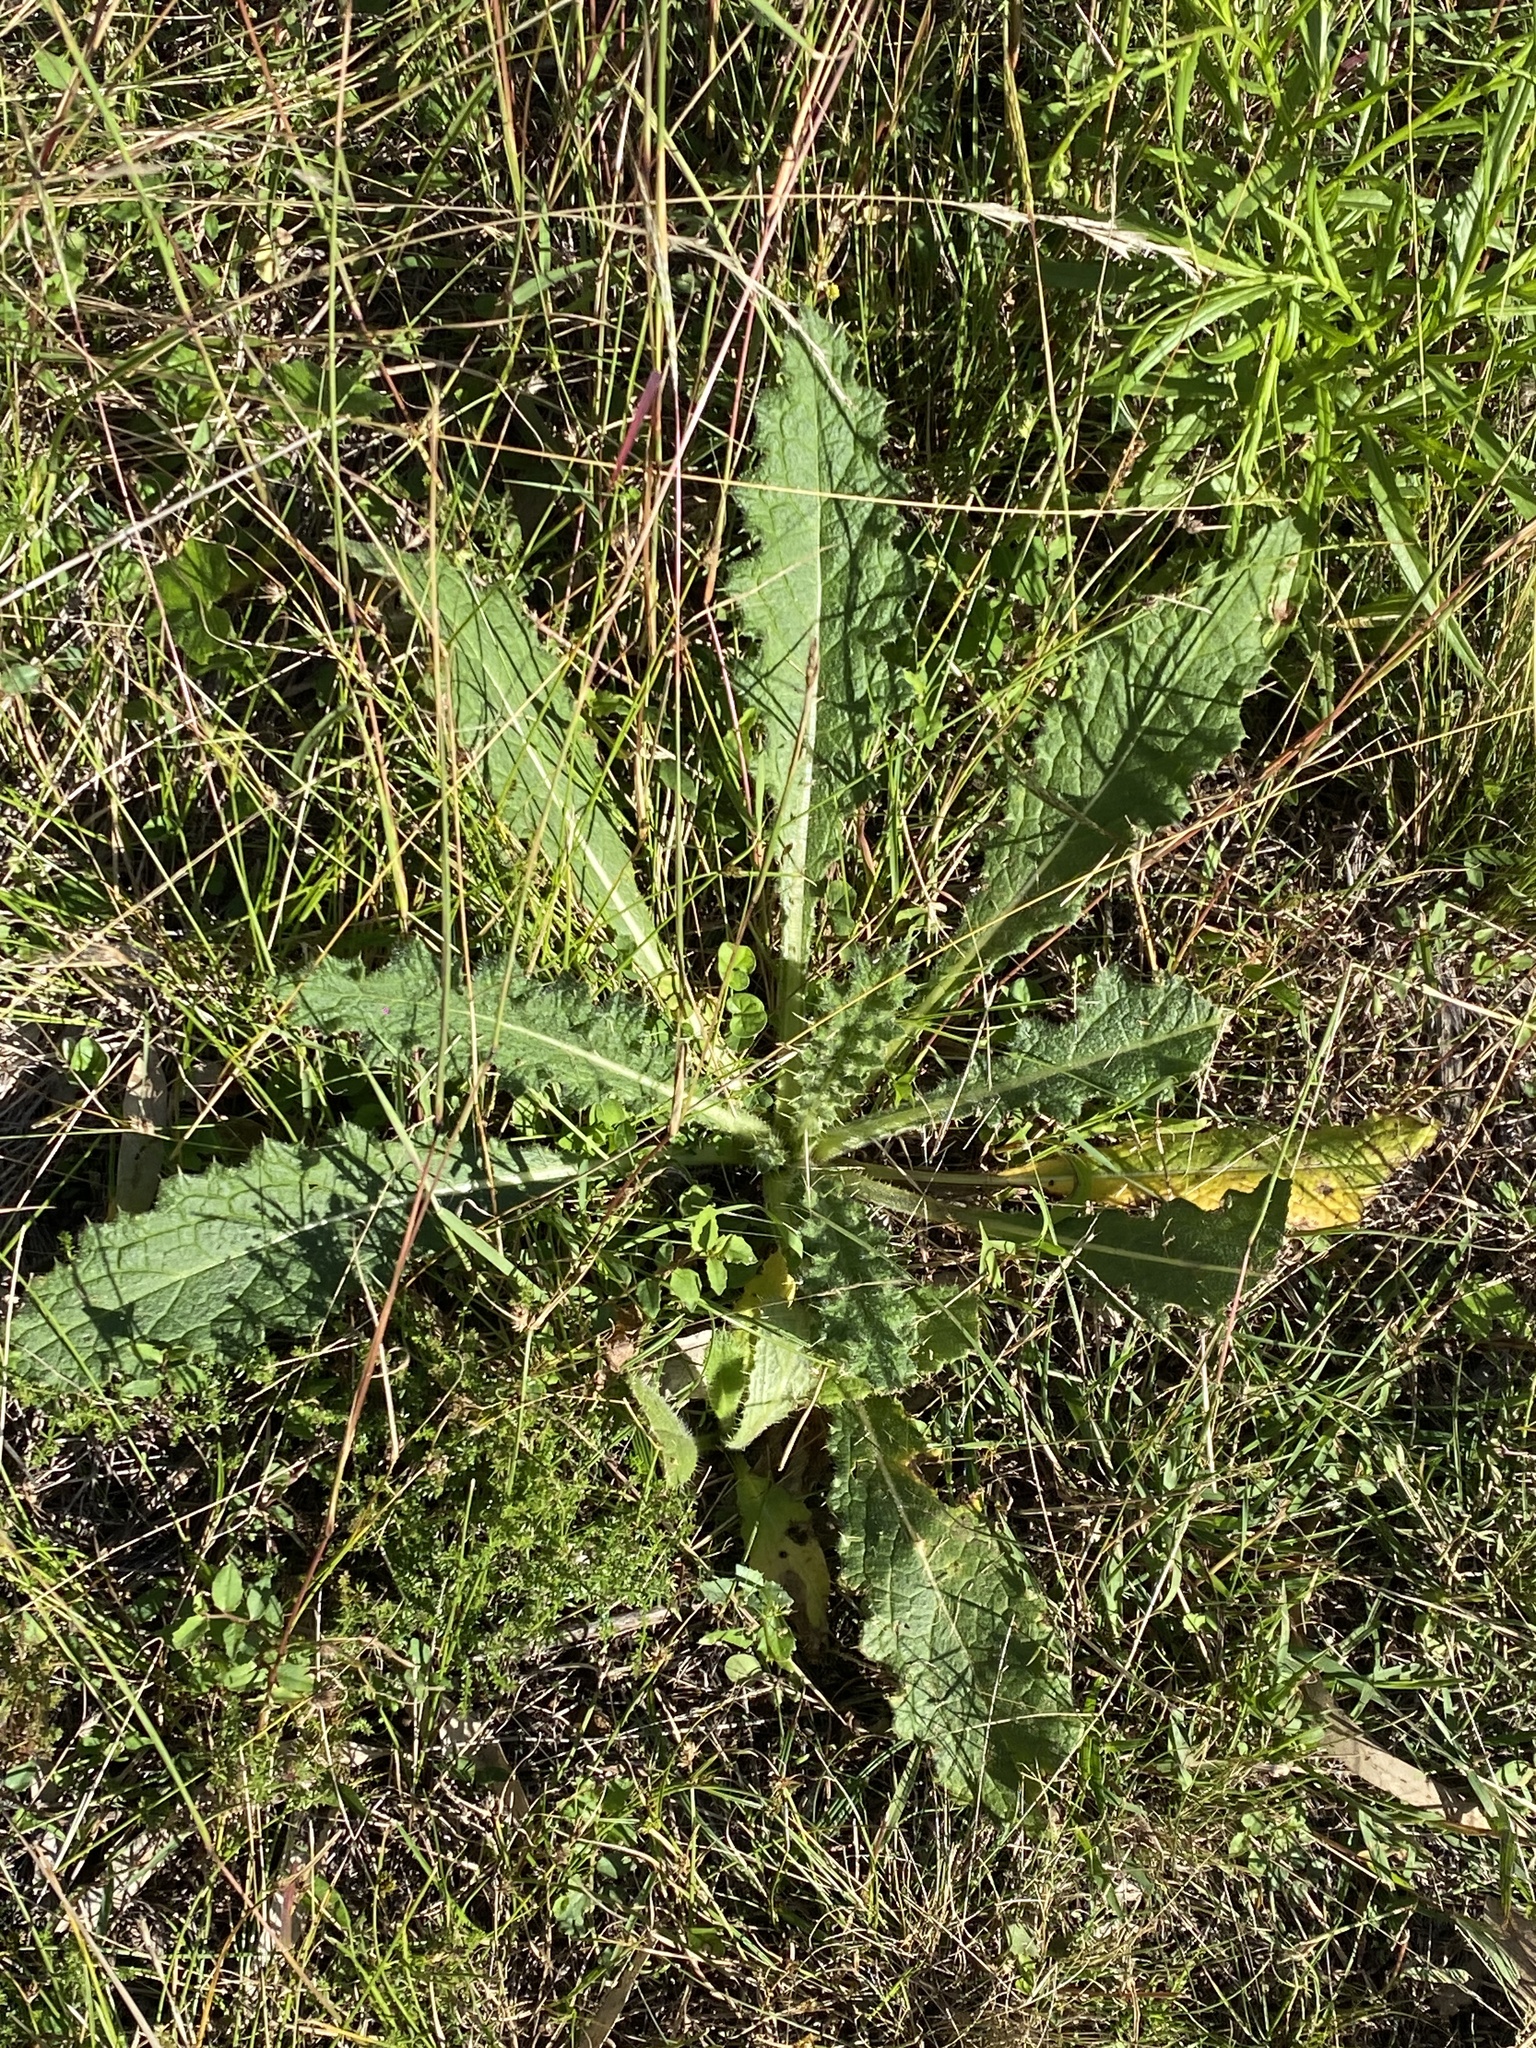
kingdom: Plantae
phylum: Tracheophyta
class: Magnoliopsida
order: Asterales
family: Asteraceae
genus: Cirsium
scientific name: Cirsium vulgare
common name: Bull thistle
